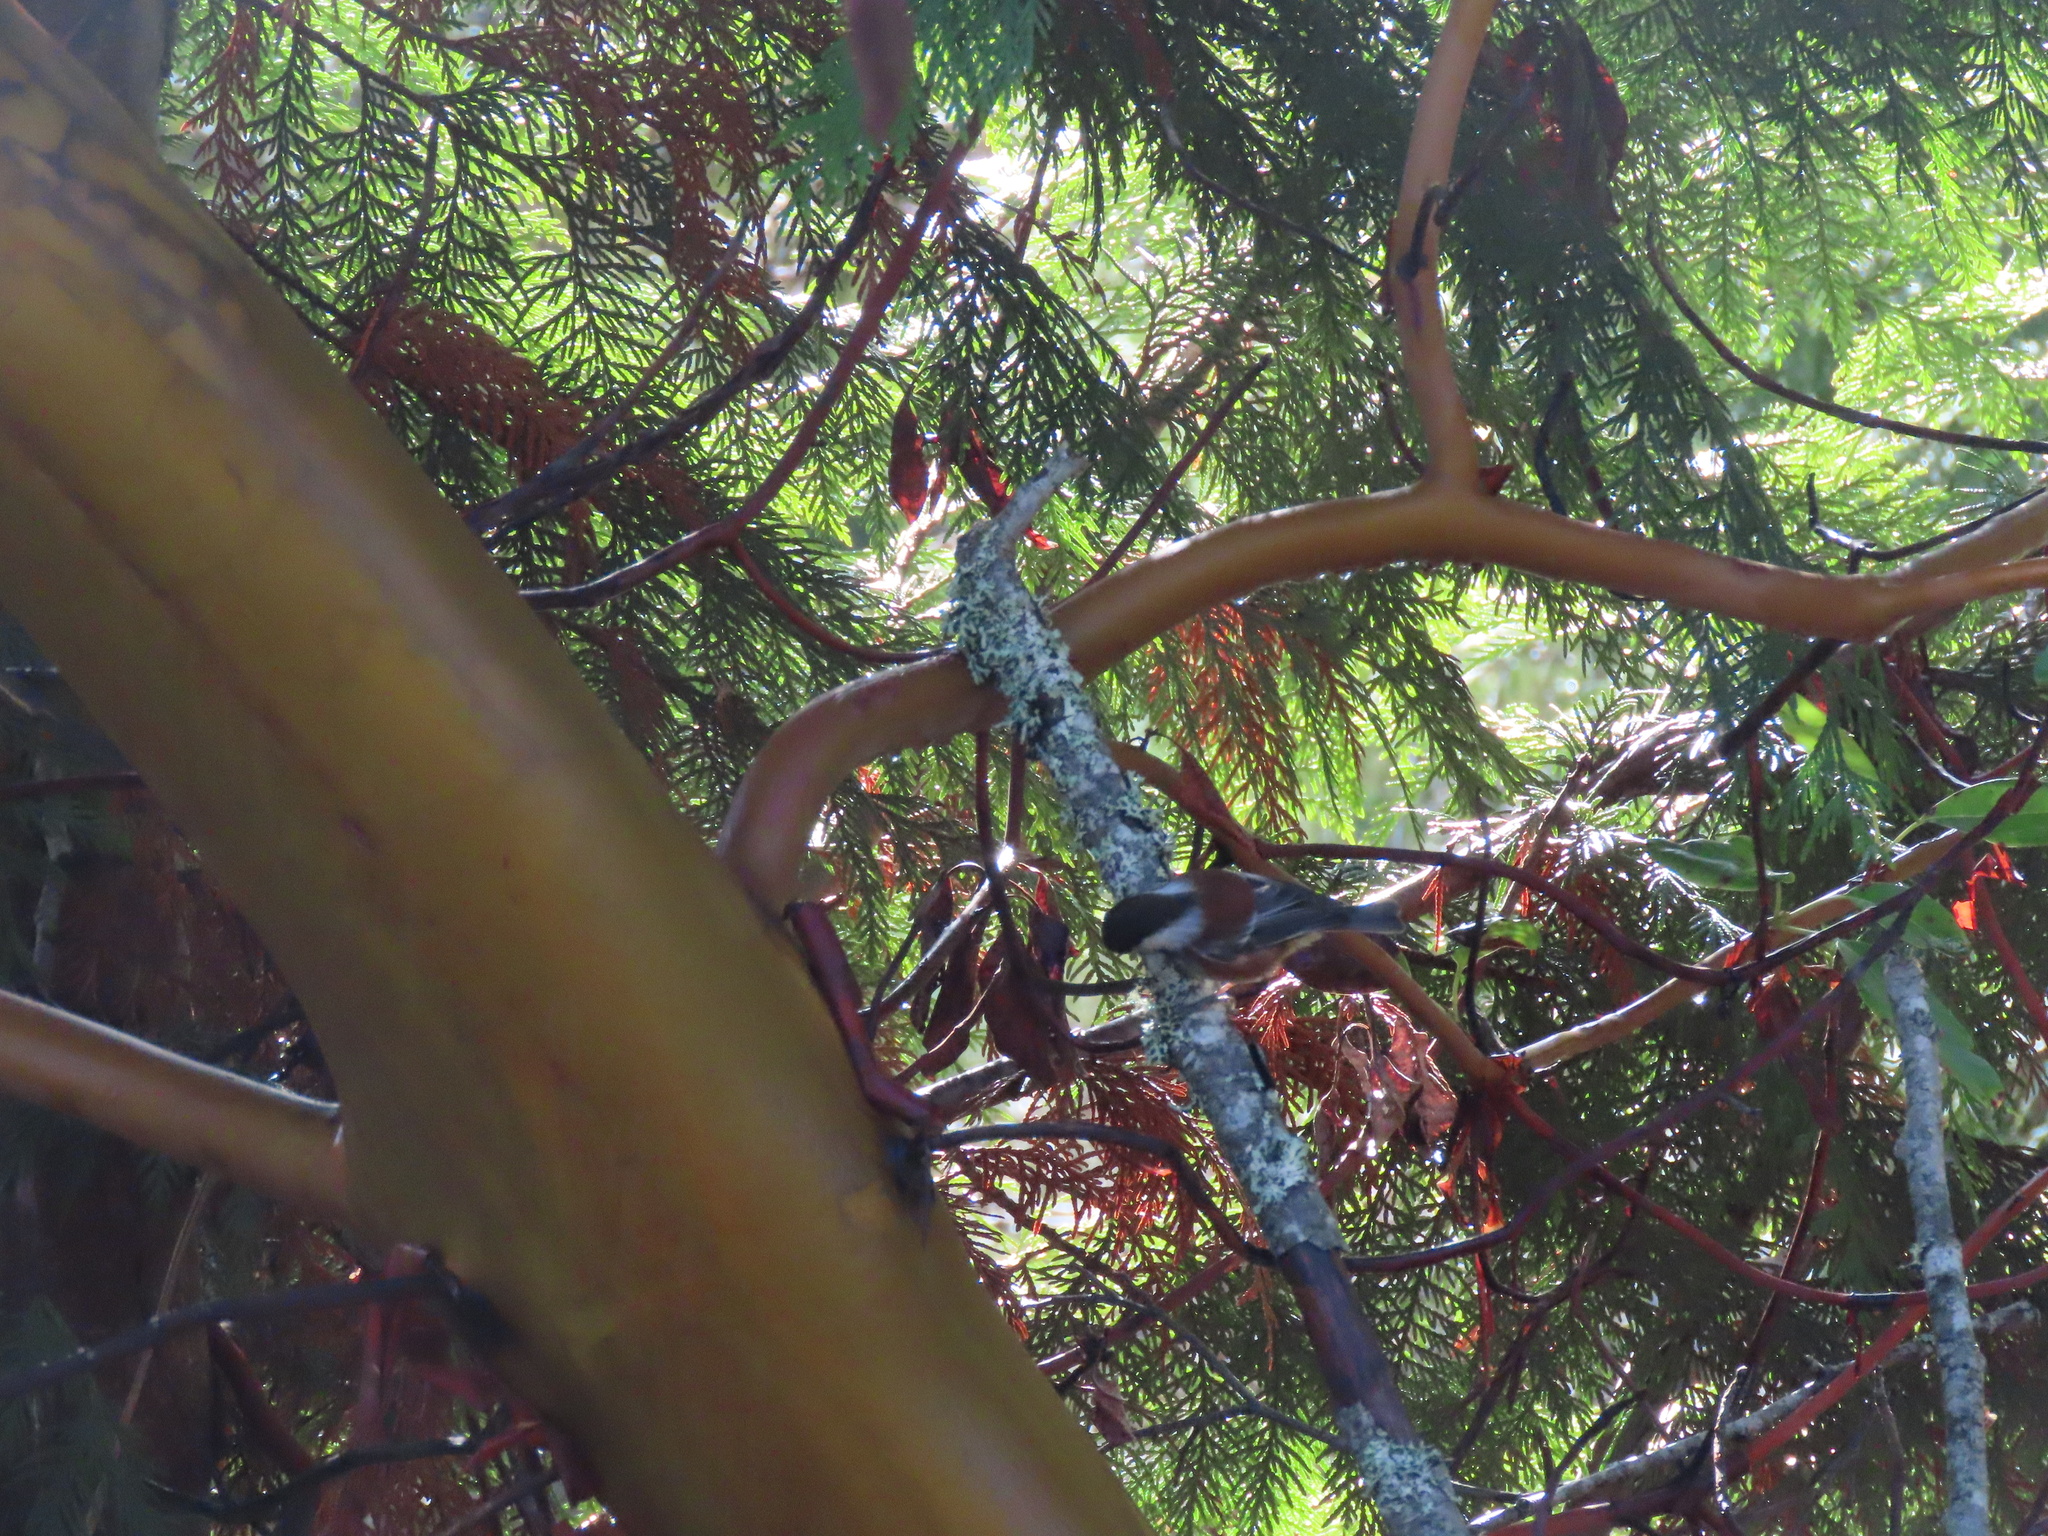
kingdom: Animalia
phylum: Chordata
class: Aves
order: Passeriformes
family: Paridae
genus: Poecile
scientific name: Poecile rufescens
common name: Chestnut-backed chickadee
